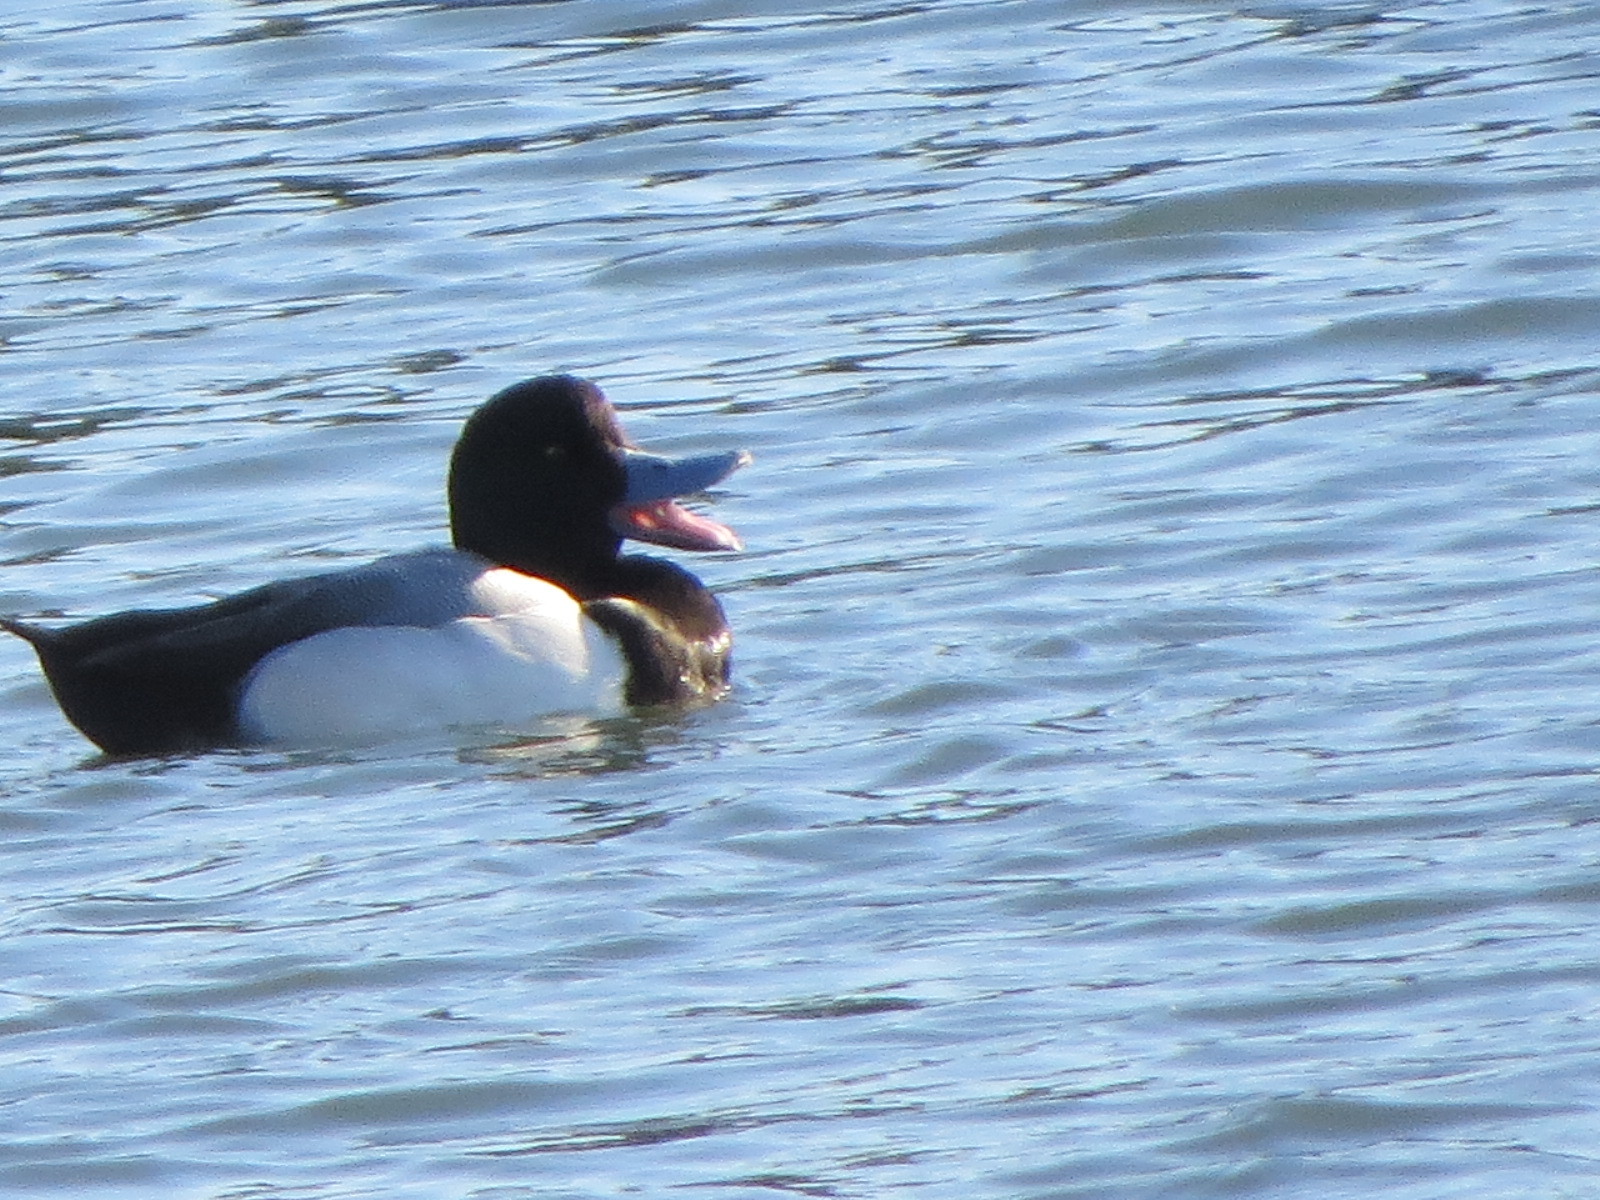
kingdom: Animalia
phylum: Chordata
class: Aves
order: Anseriformes
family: Anatidae
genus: Aythya
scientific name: Aythya marila
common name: Greater scaup
